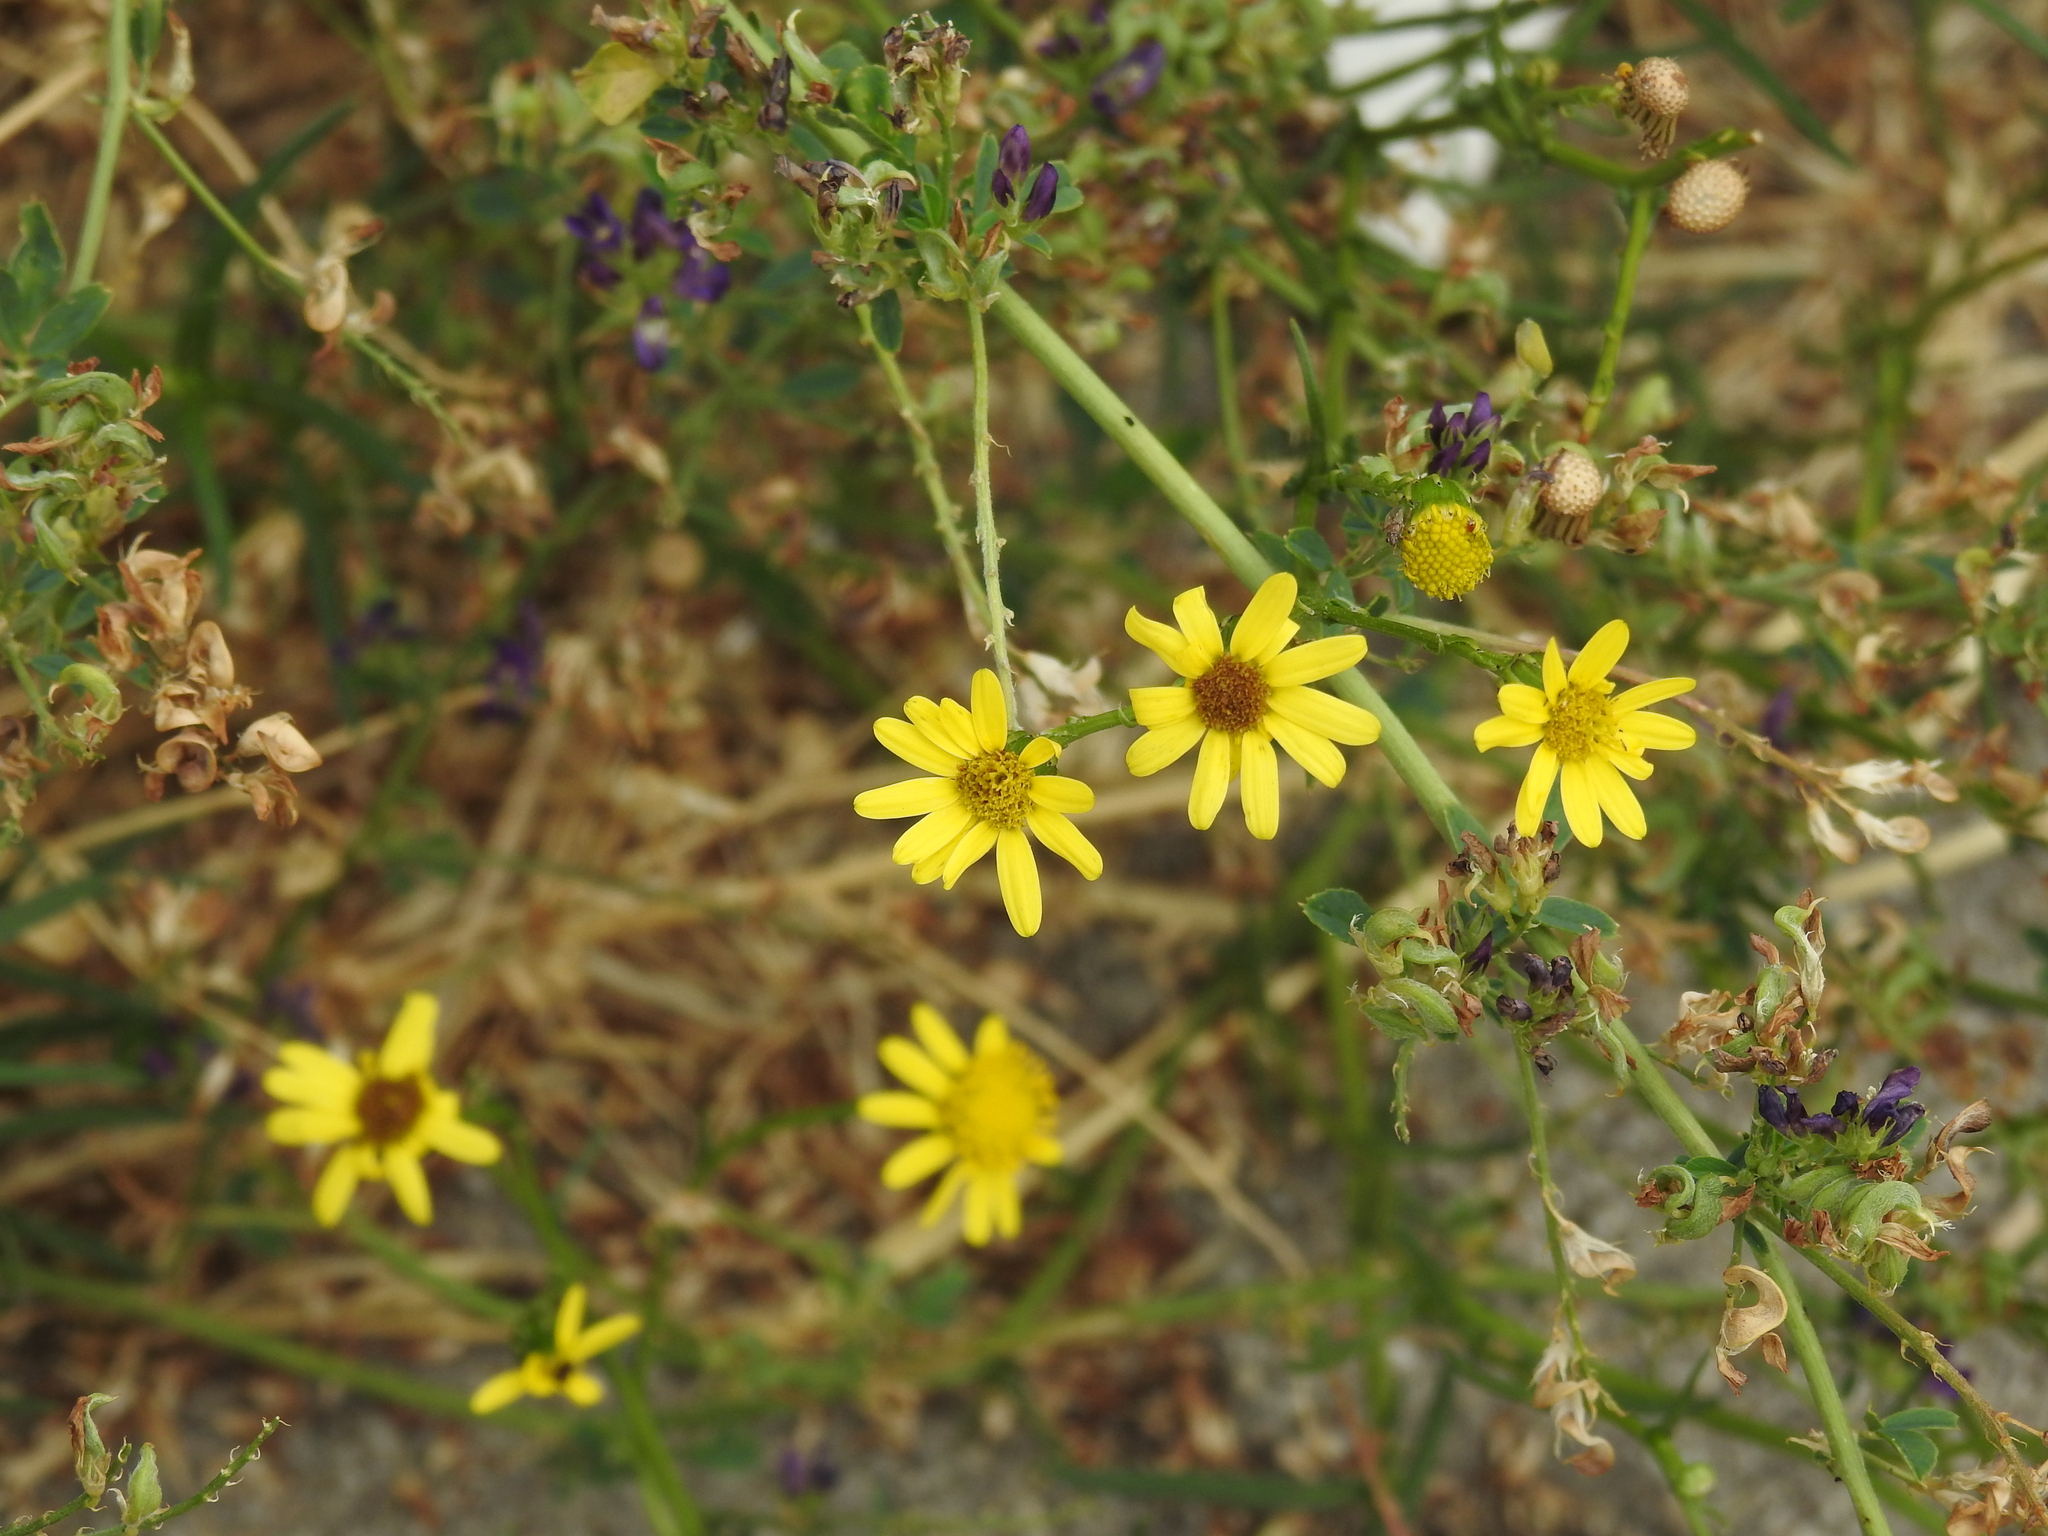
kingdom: Plantae
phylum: Tracheophyta
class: Magnoliopsida
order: Asterales
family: Asteraceae
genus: Senecio
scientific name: Senecio inaequidens
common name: Narrow-leaved ragwort
